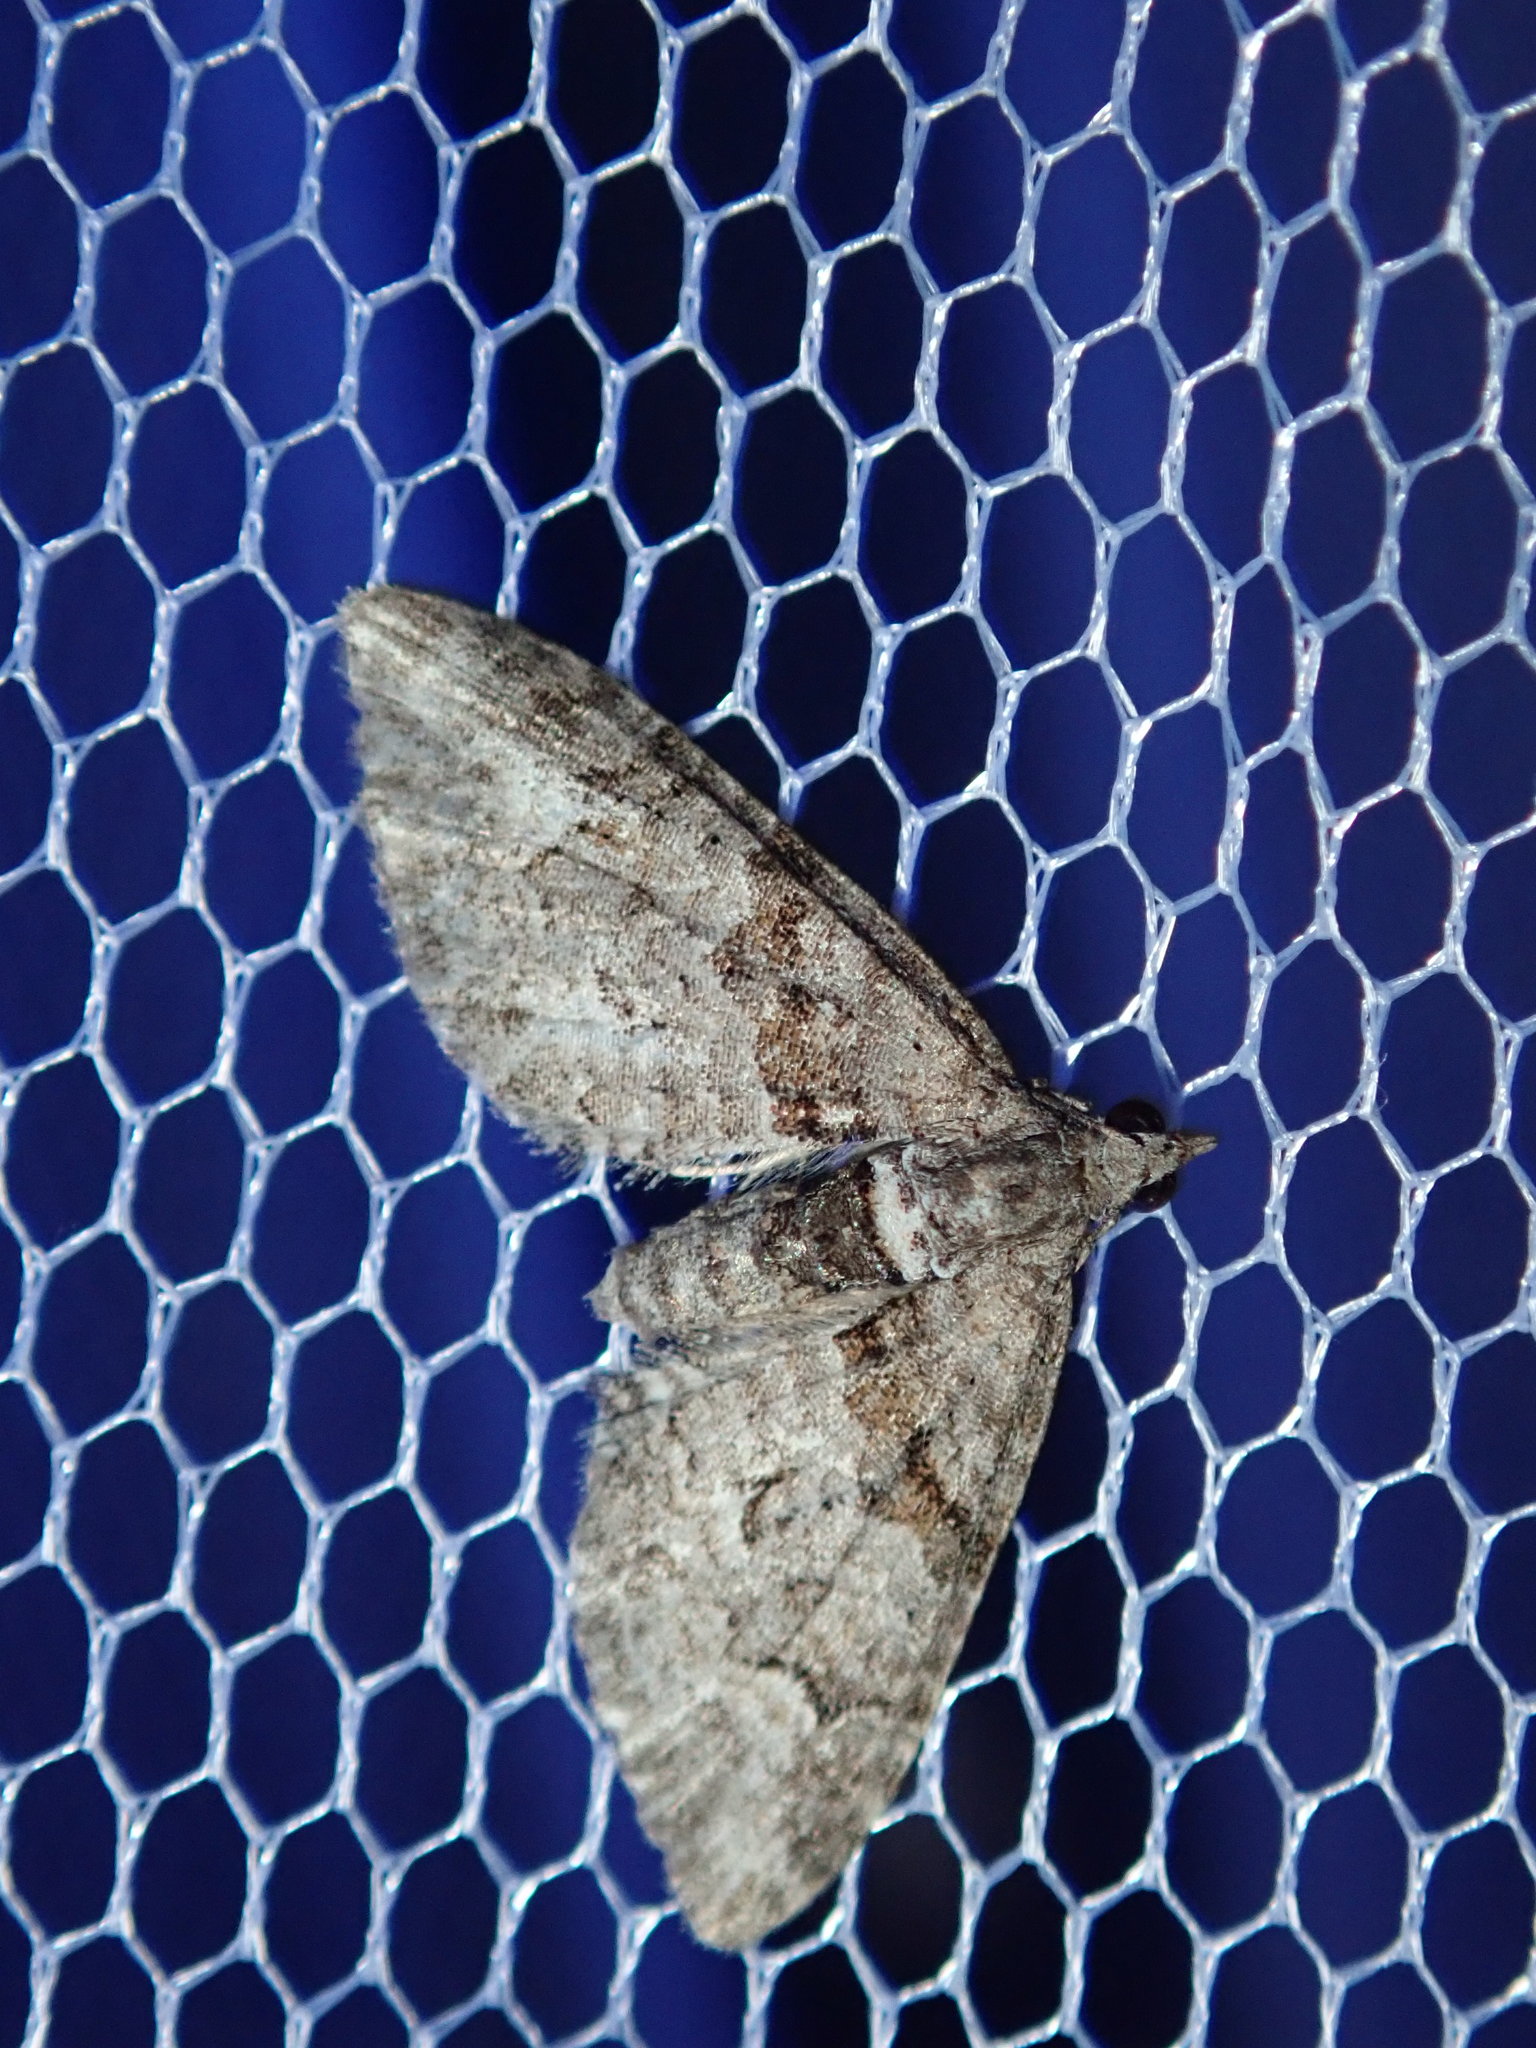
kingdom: Animalia
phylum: Arthropoda
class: Insecta
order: Lepidoptera
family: Geometridae
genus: Phrissogonus
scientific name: Phrissogonus laticostata
